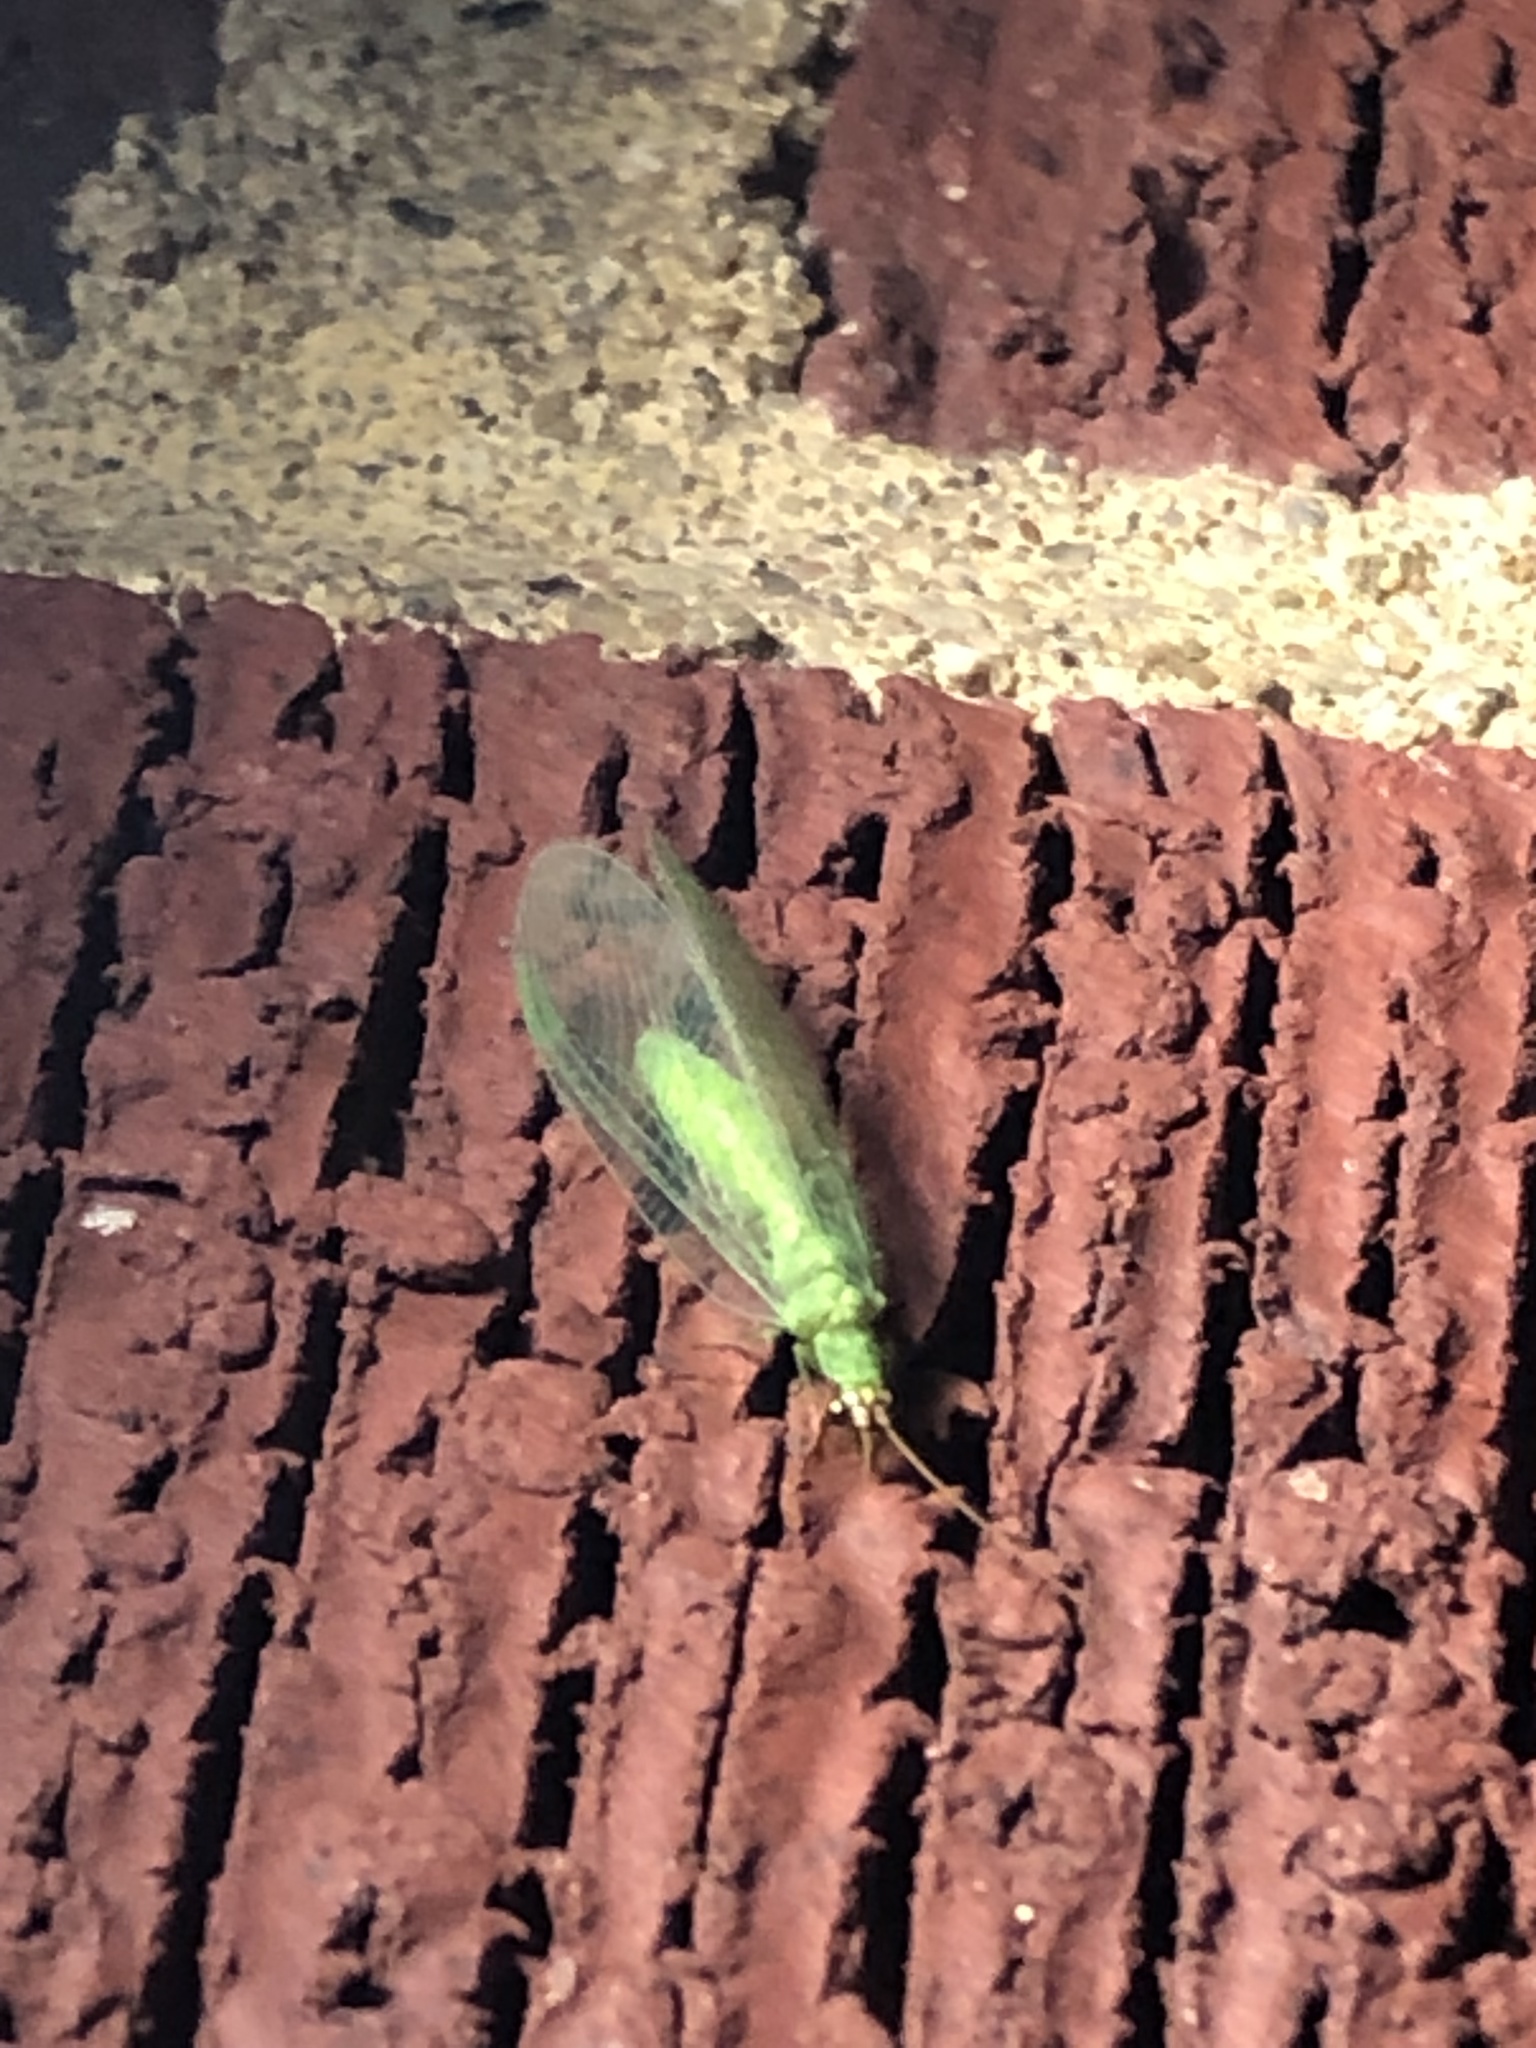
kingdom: Animalia
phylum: Arthropoda
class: Insecta
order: Neuroptera
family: Chrysopidae
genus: Chrysopa
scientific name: Chrysopa oculata
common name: Golden-eyed lacewing
